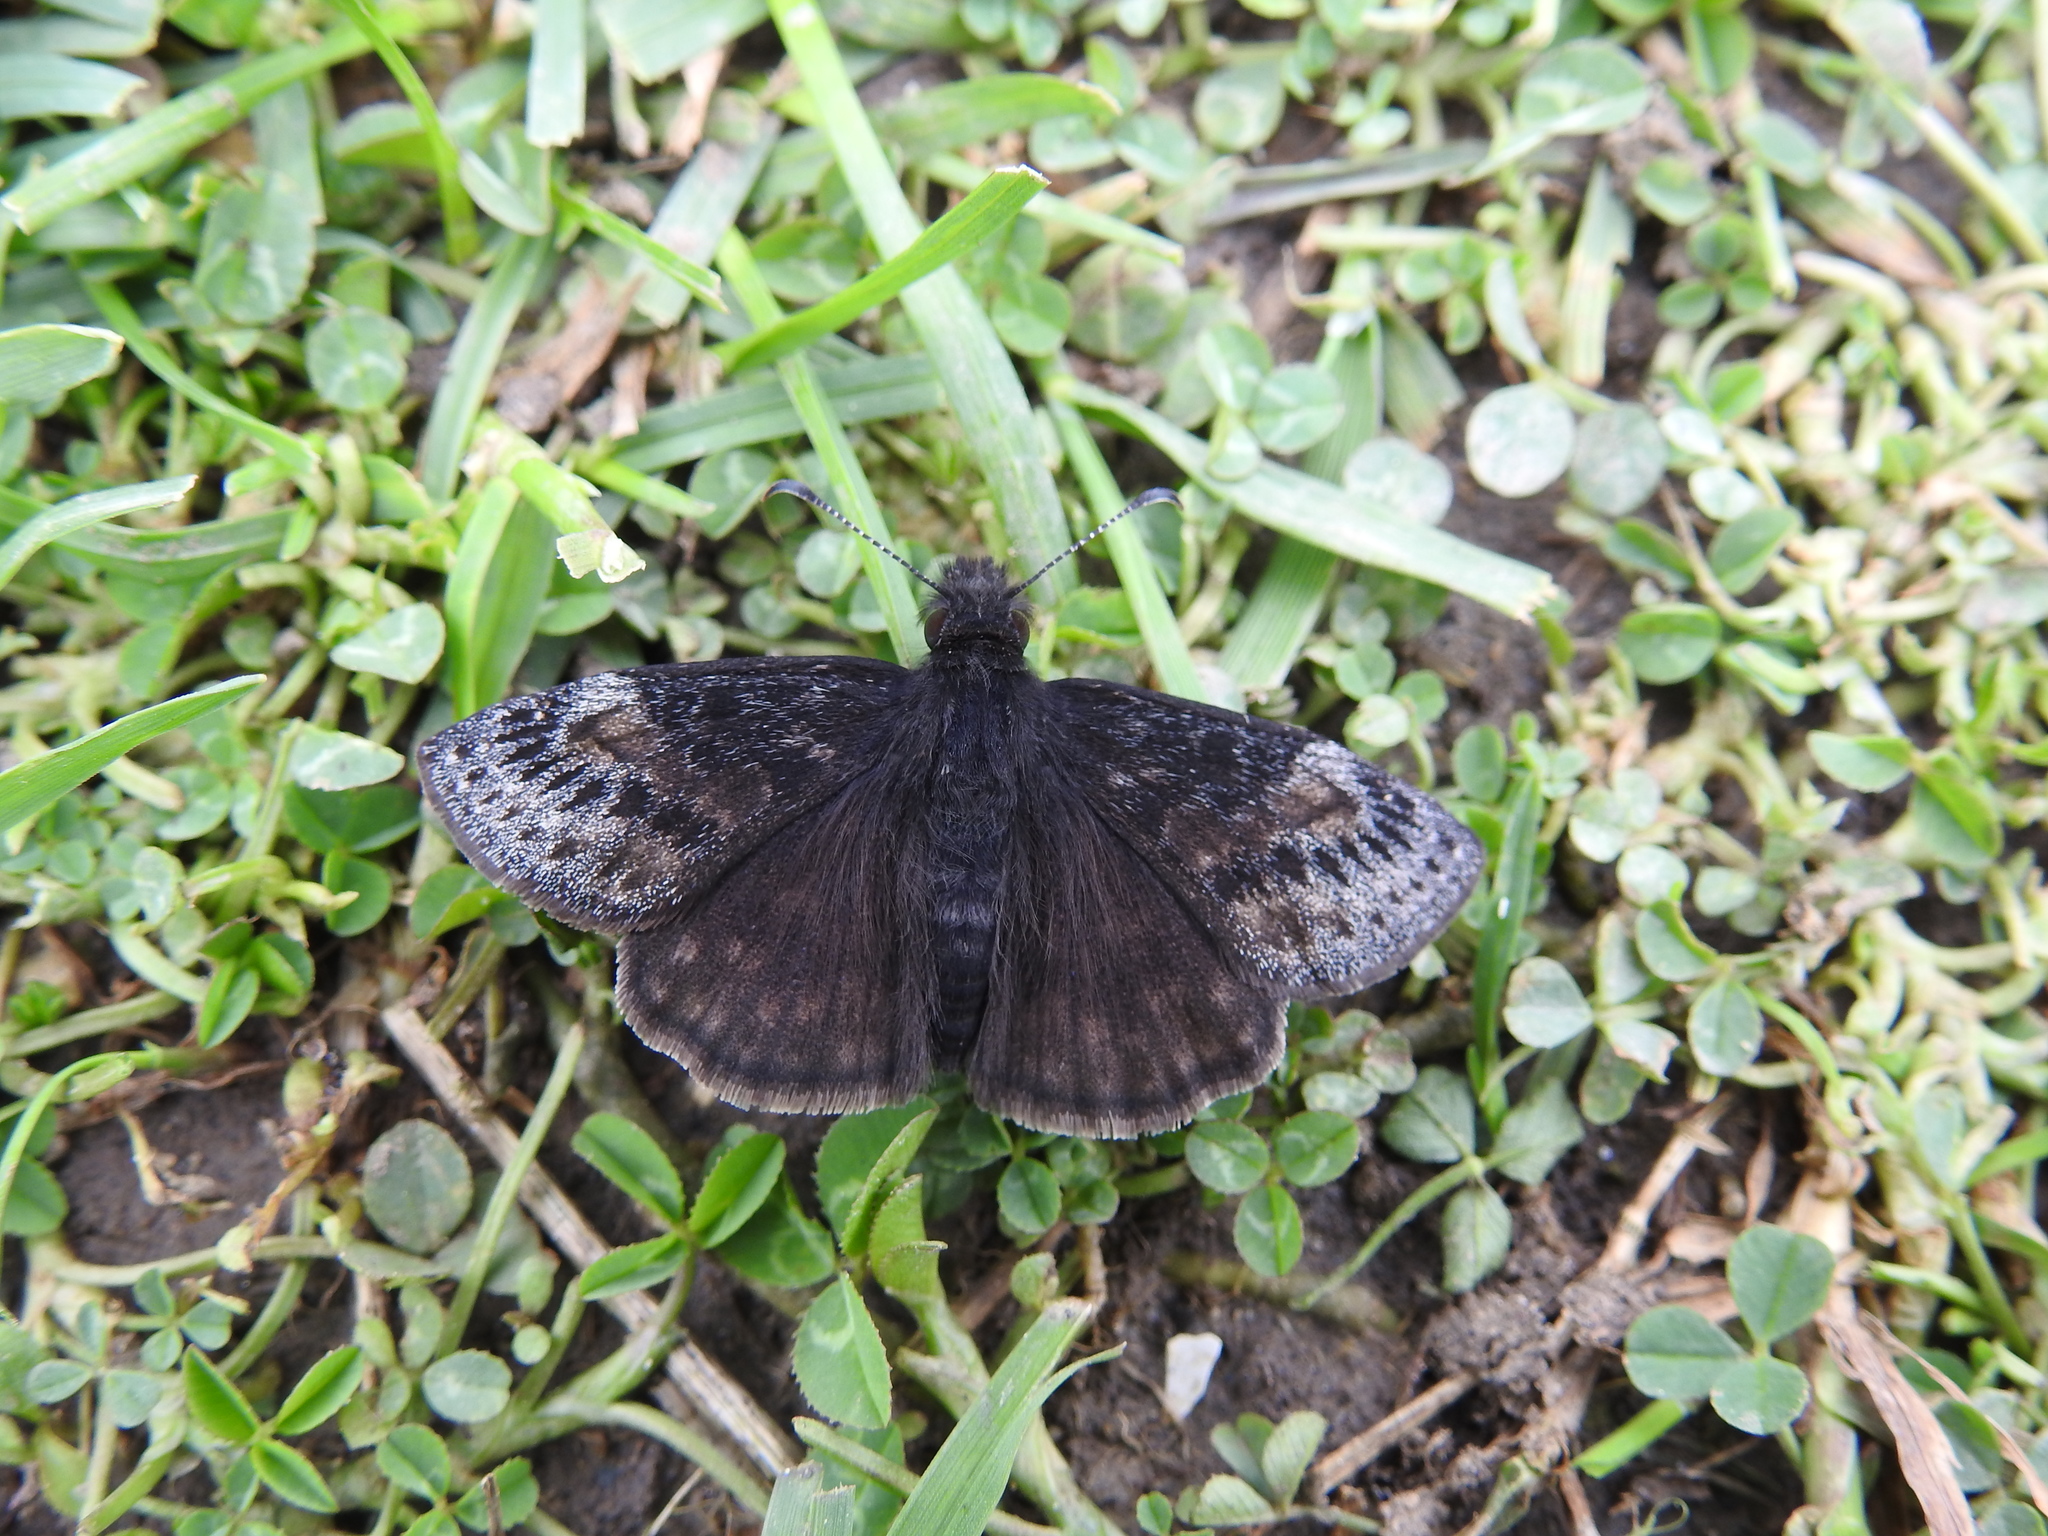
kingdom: Animalia
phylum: Arthropoda
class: Insecta
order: Lepidoptera
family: Hesperiidae
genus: Erynnis
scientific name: Erynnis baptisiae
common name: Wild indigo duskywing
